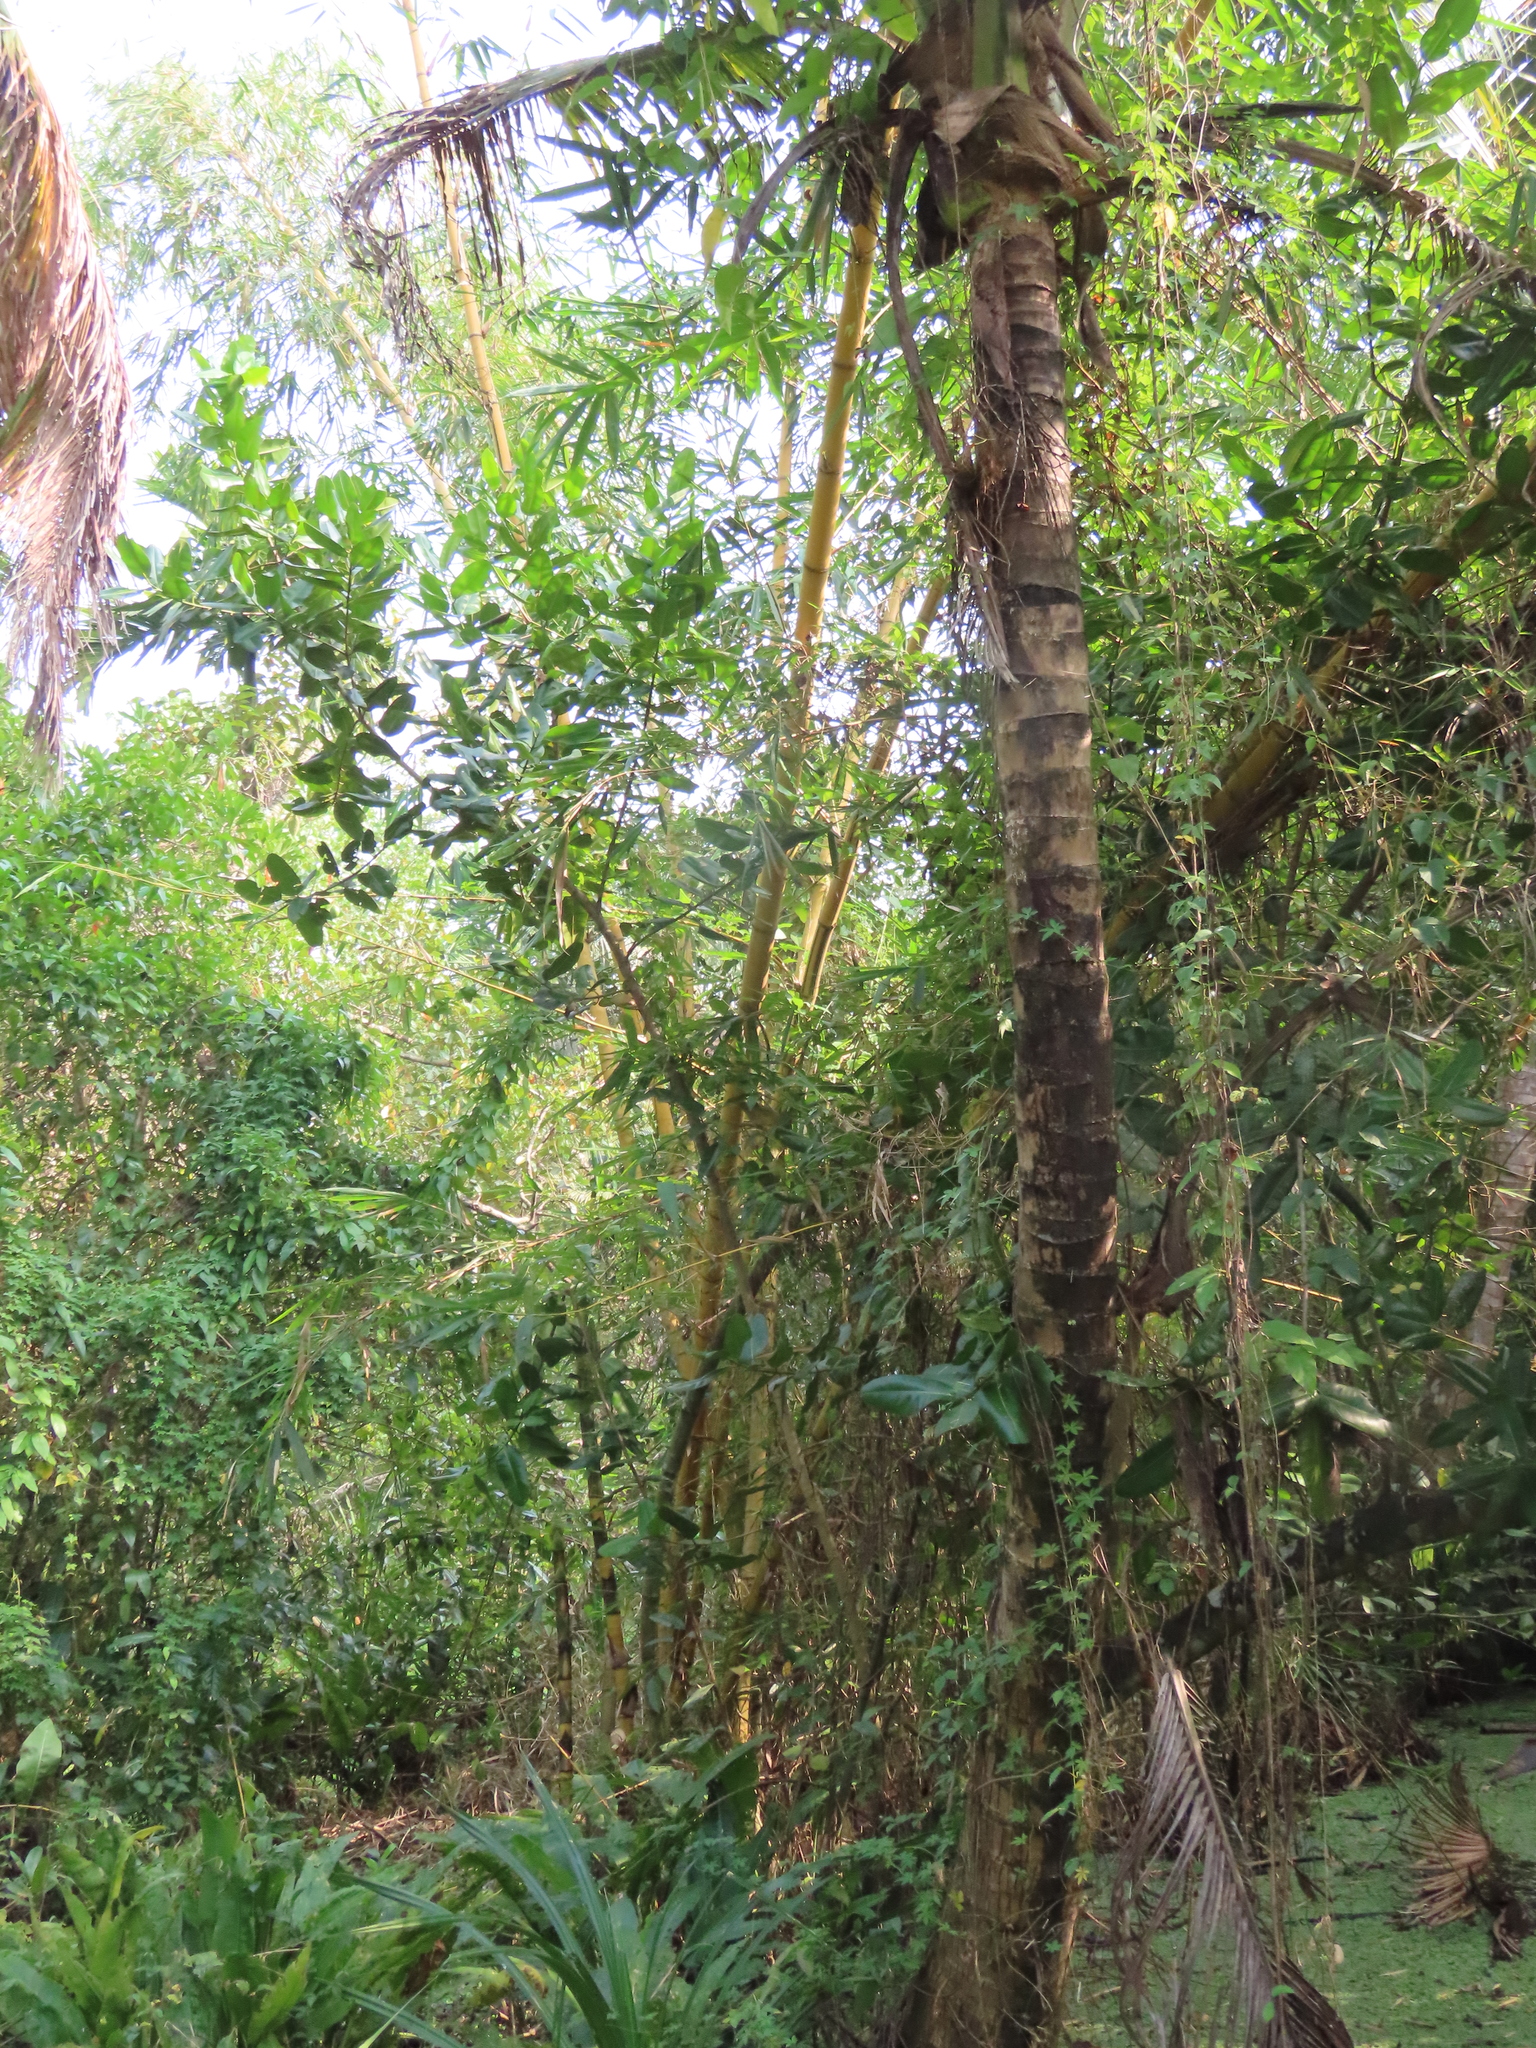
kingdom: Plantae
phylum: Tracheophyta
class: Liliopsida
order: Arecales
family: Arecaceae
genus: Cocos
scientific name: Cocos nucifera
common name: Coconut palm
